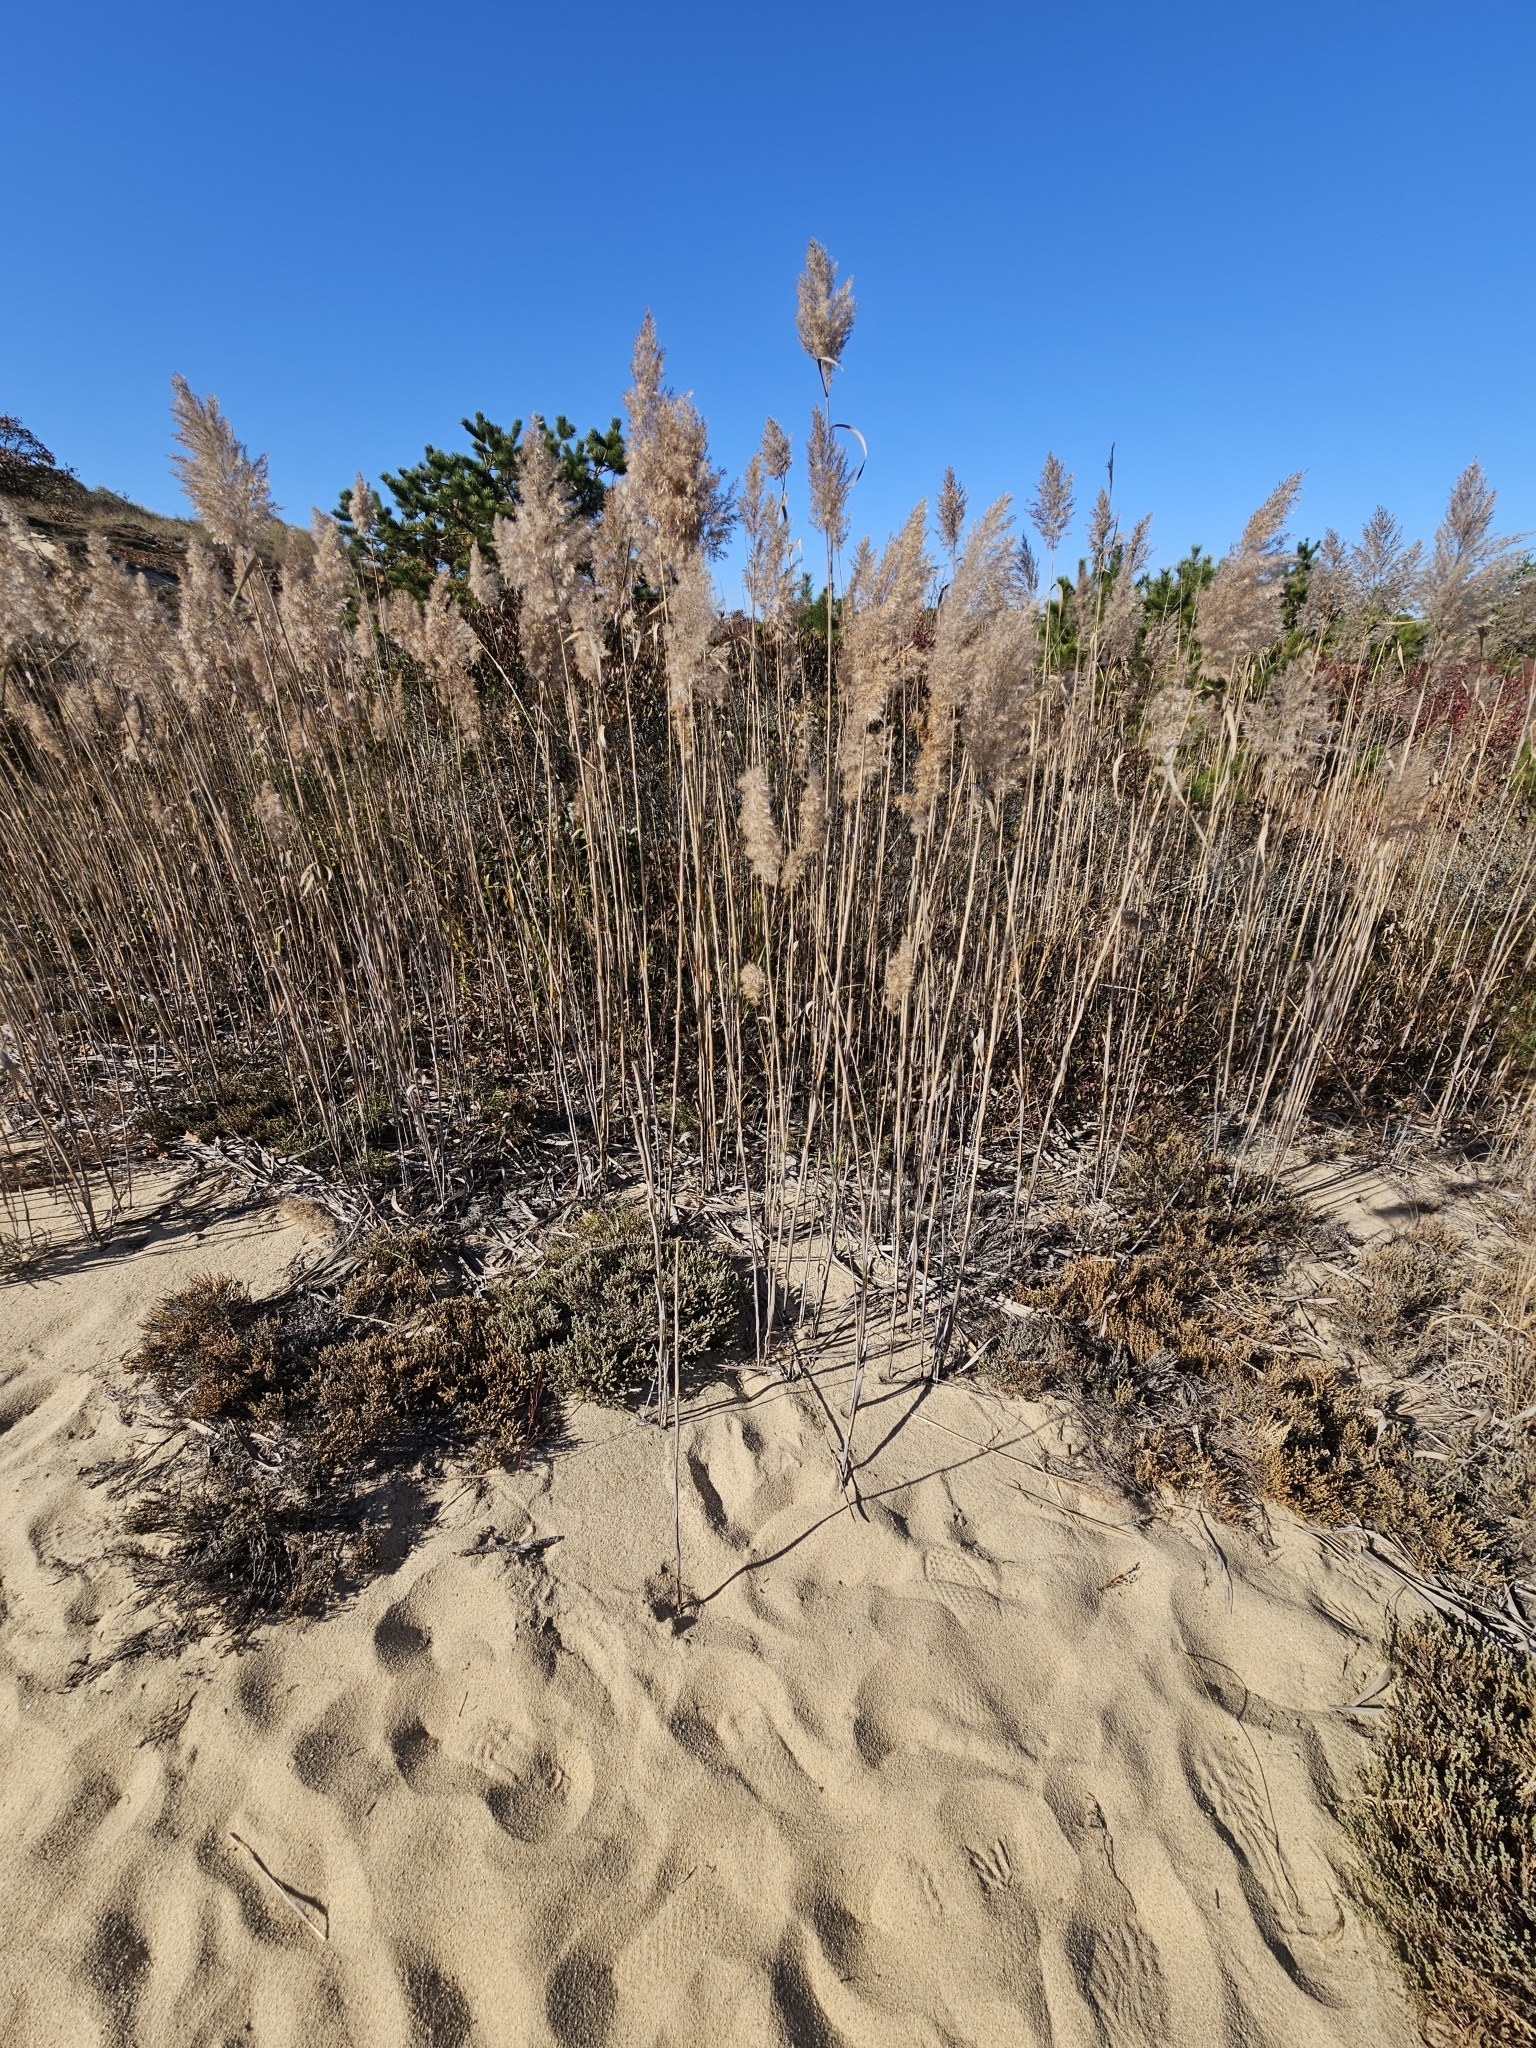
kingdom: Plantae
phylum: Tracheophyta
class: Liliopsida
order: Poales
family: Poaceae
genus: Phragmites
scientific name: Phragmites australis
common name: Common reed
